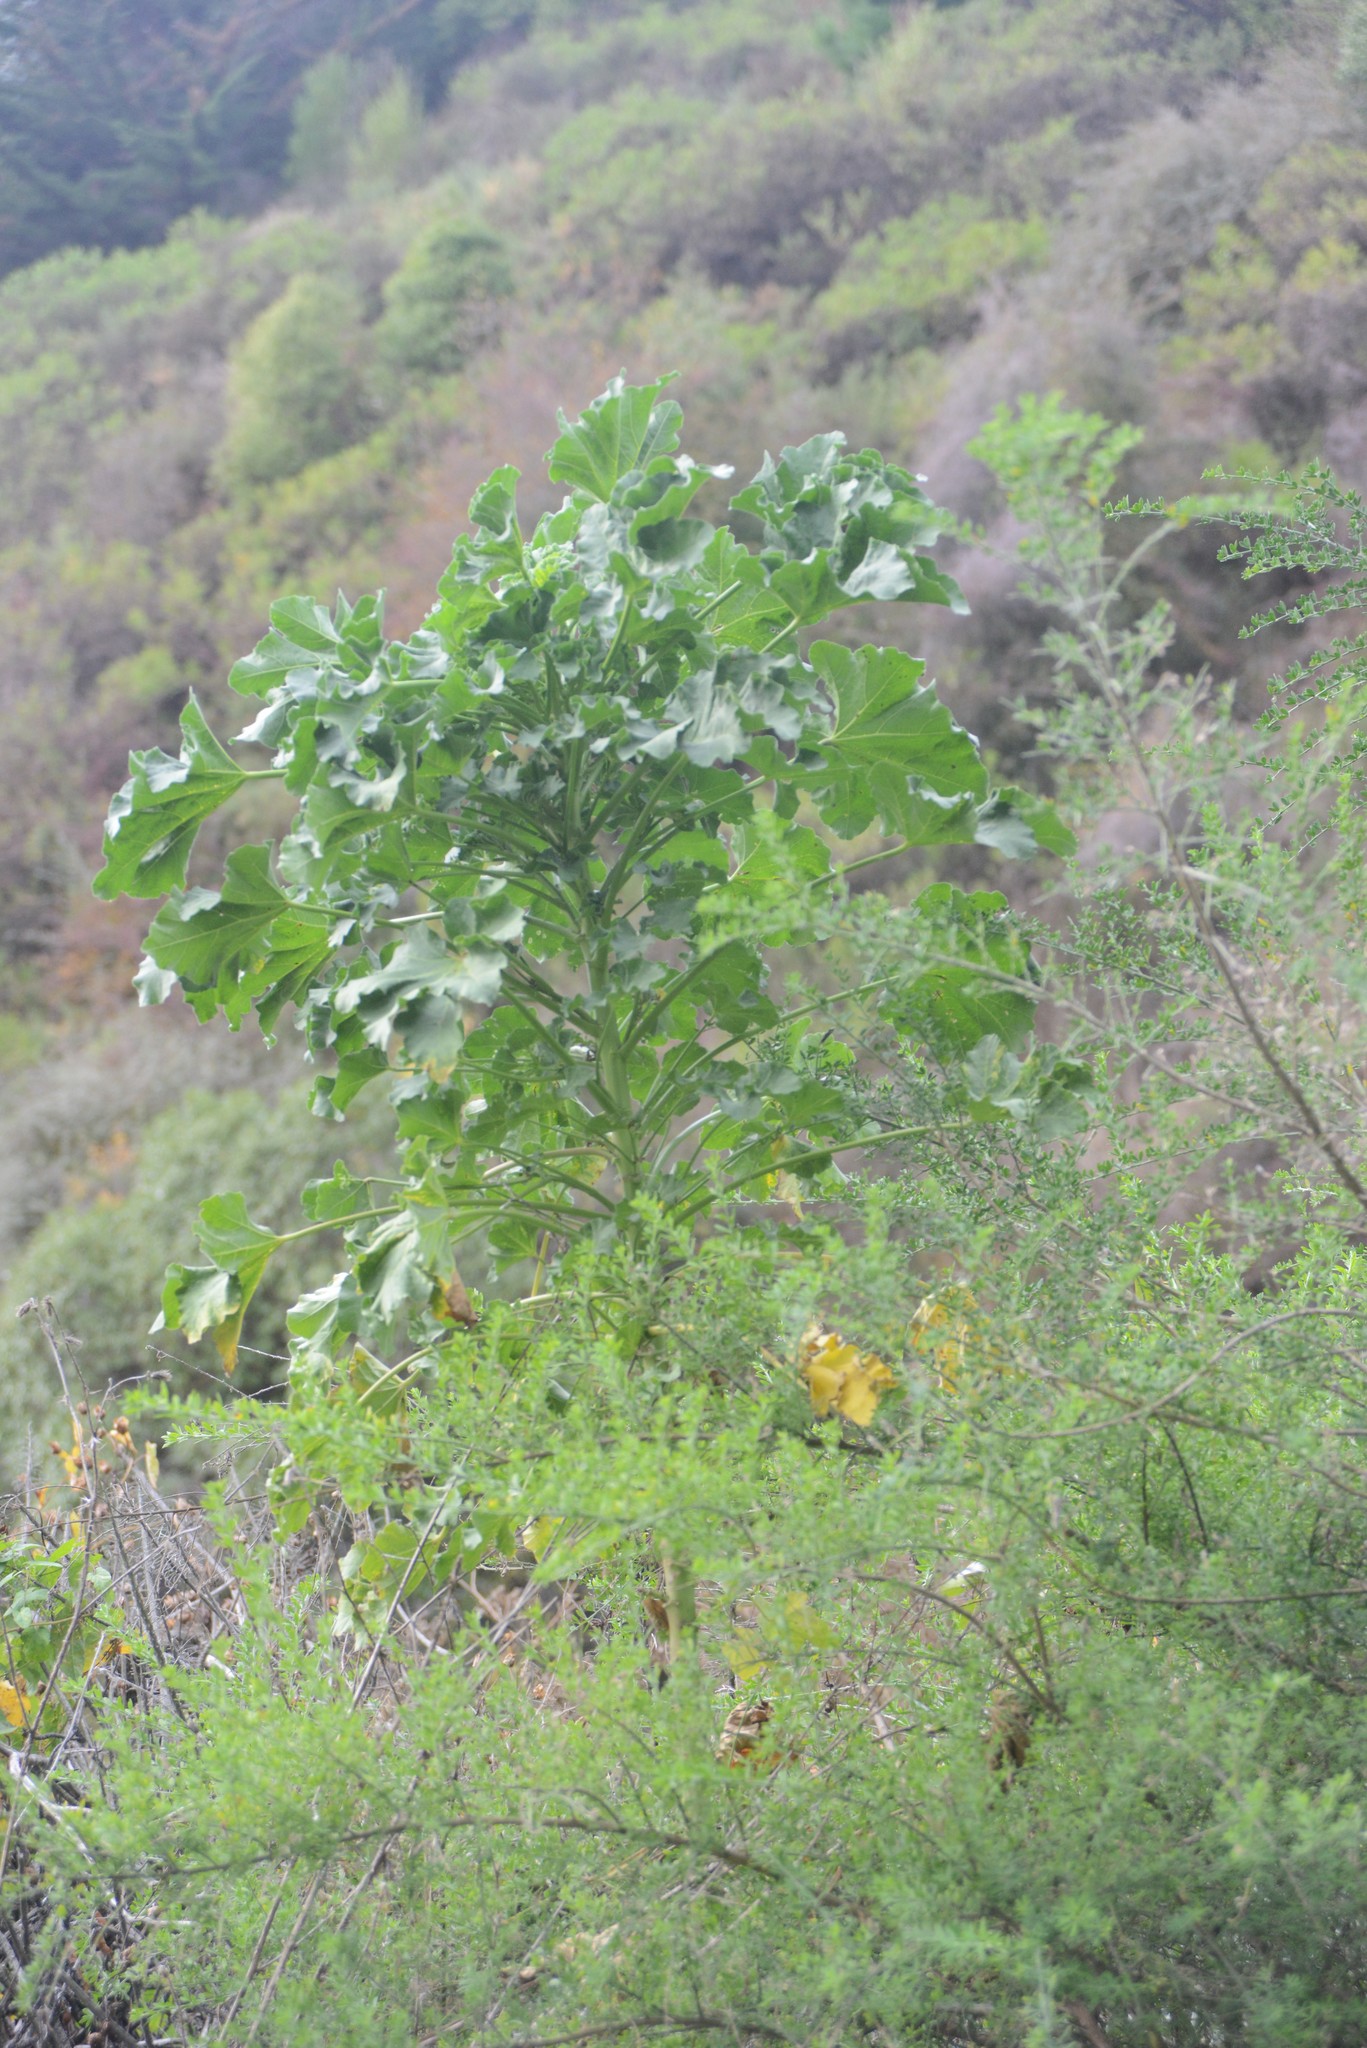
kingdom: Plantae
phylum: Tracheophyta
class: Magnoliopsida
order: Malvales
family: Malvaceae
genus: Malva
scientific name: Malva arborea
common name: Tree mallow
